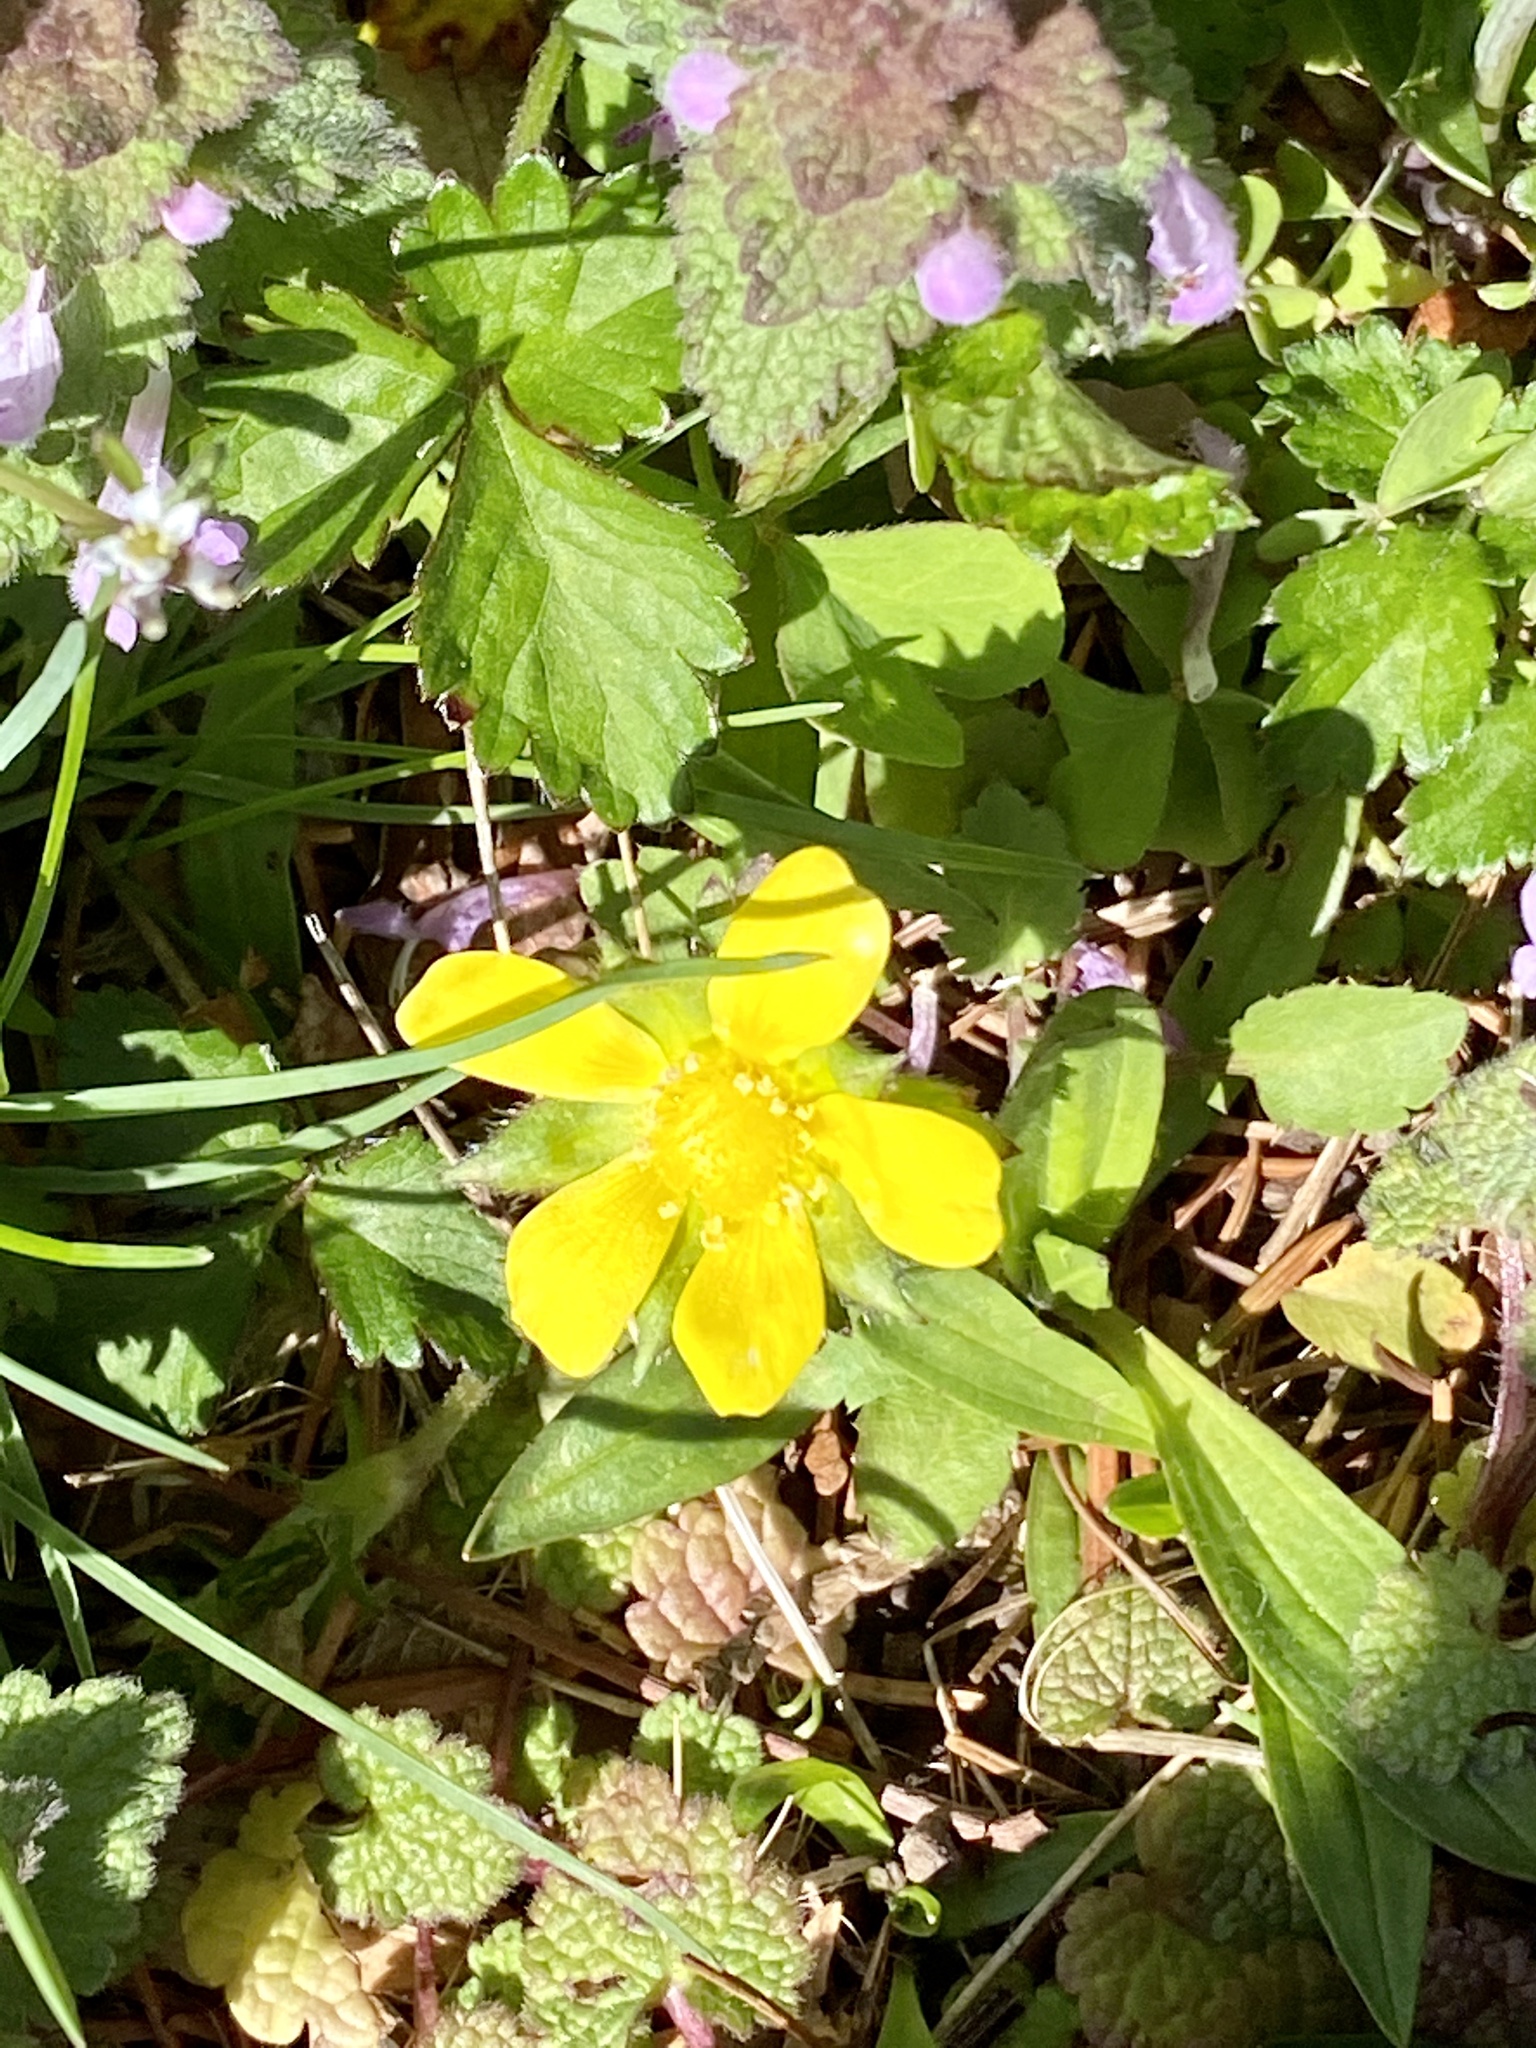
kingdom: Plantae
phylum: Tracheophyta
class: Magnoliopsida
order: Rosales
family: Rosaceae
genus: Potentilla
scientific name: Potentilla indica
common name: Yellow-flowered strawberry
